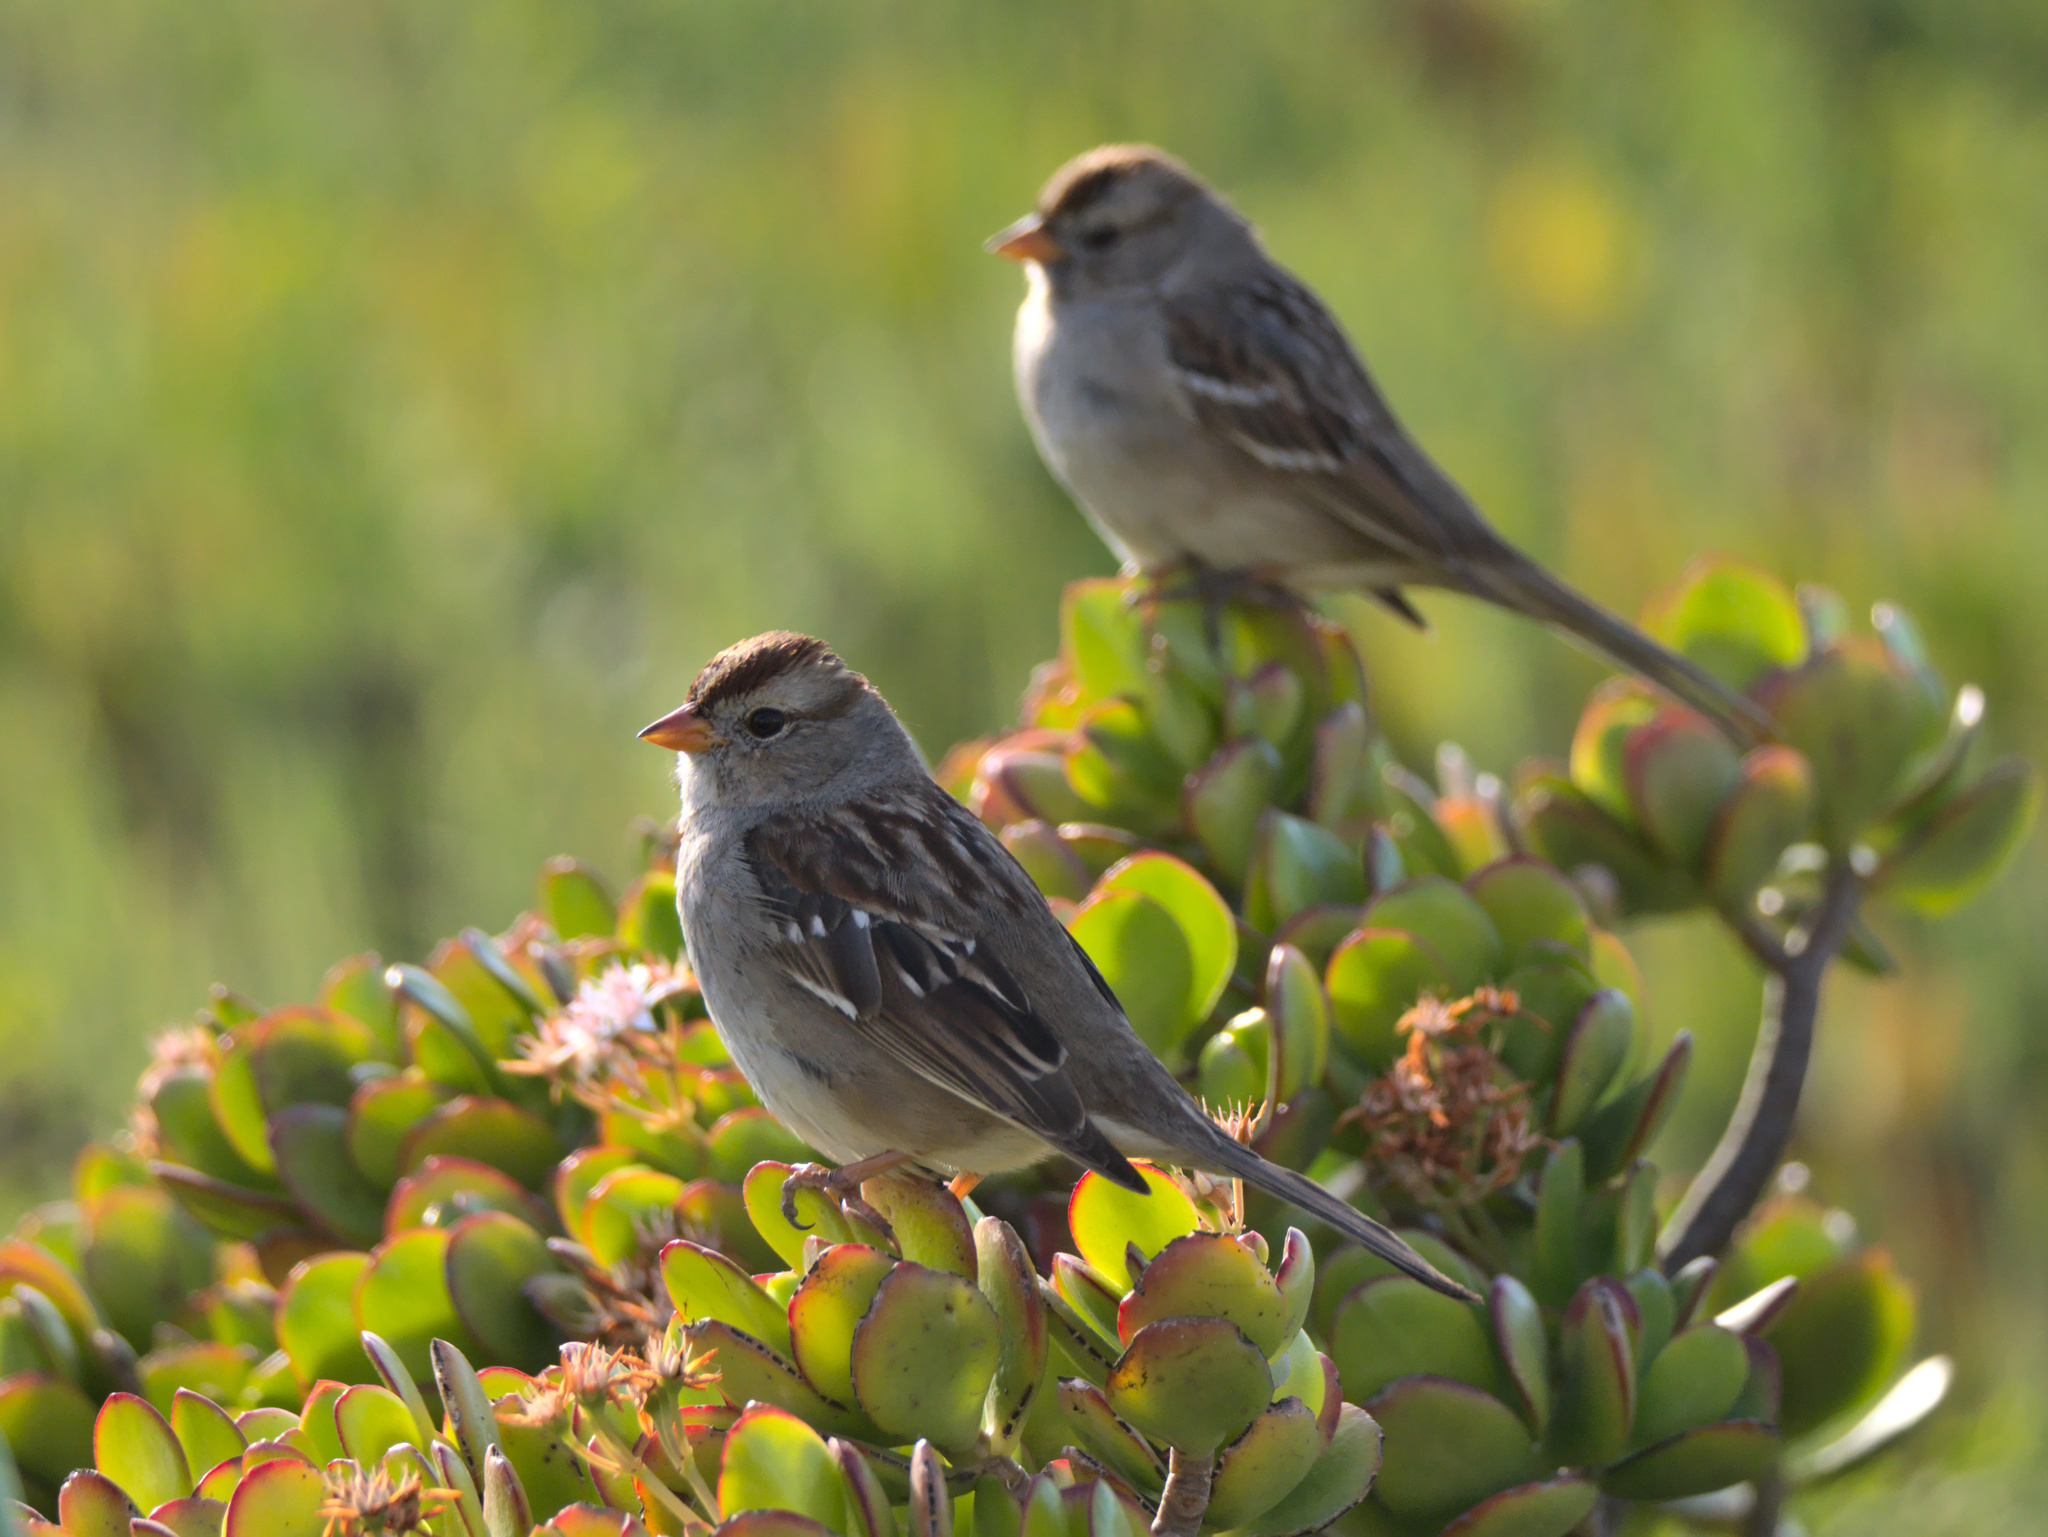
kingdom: Animalia
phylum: Chordata
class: Aves
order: Passeriformes
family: Passerellidae
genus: Zonotrichia
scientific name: Zonotrichia leucophrys
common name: White-crowned sparrow
